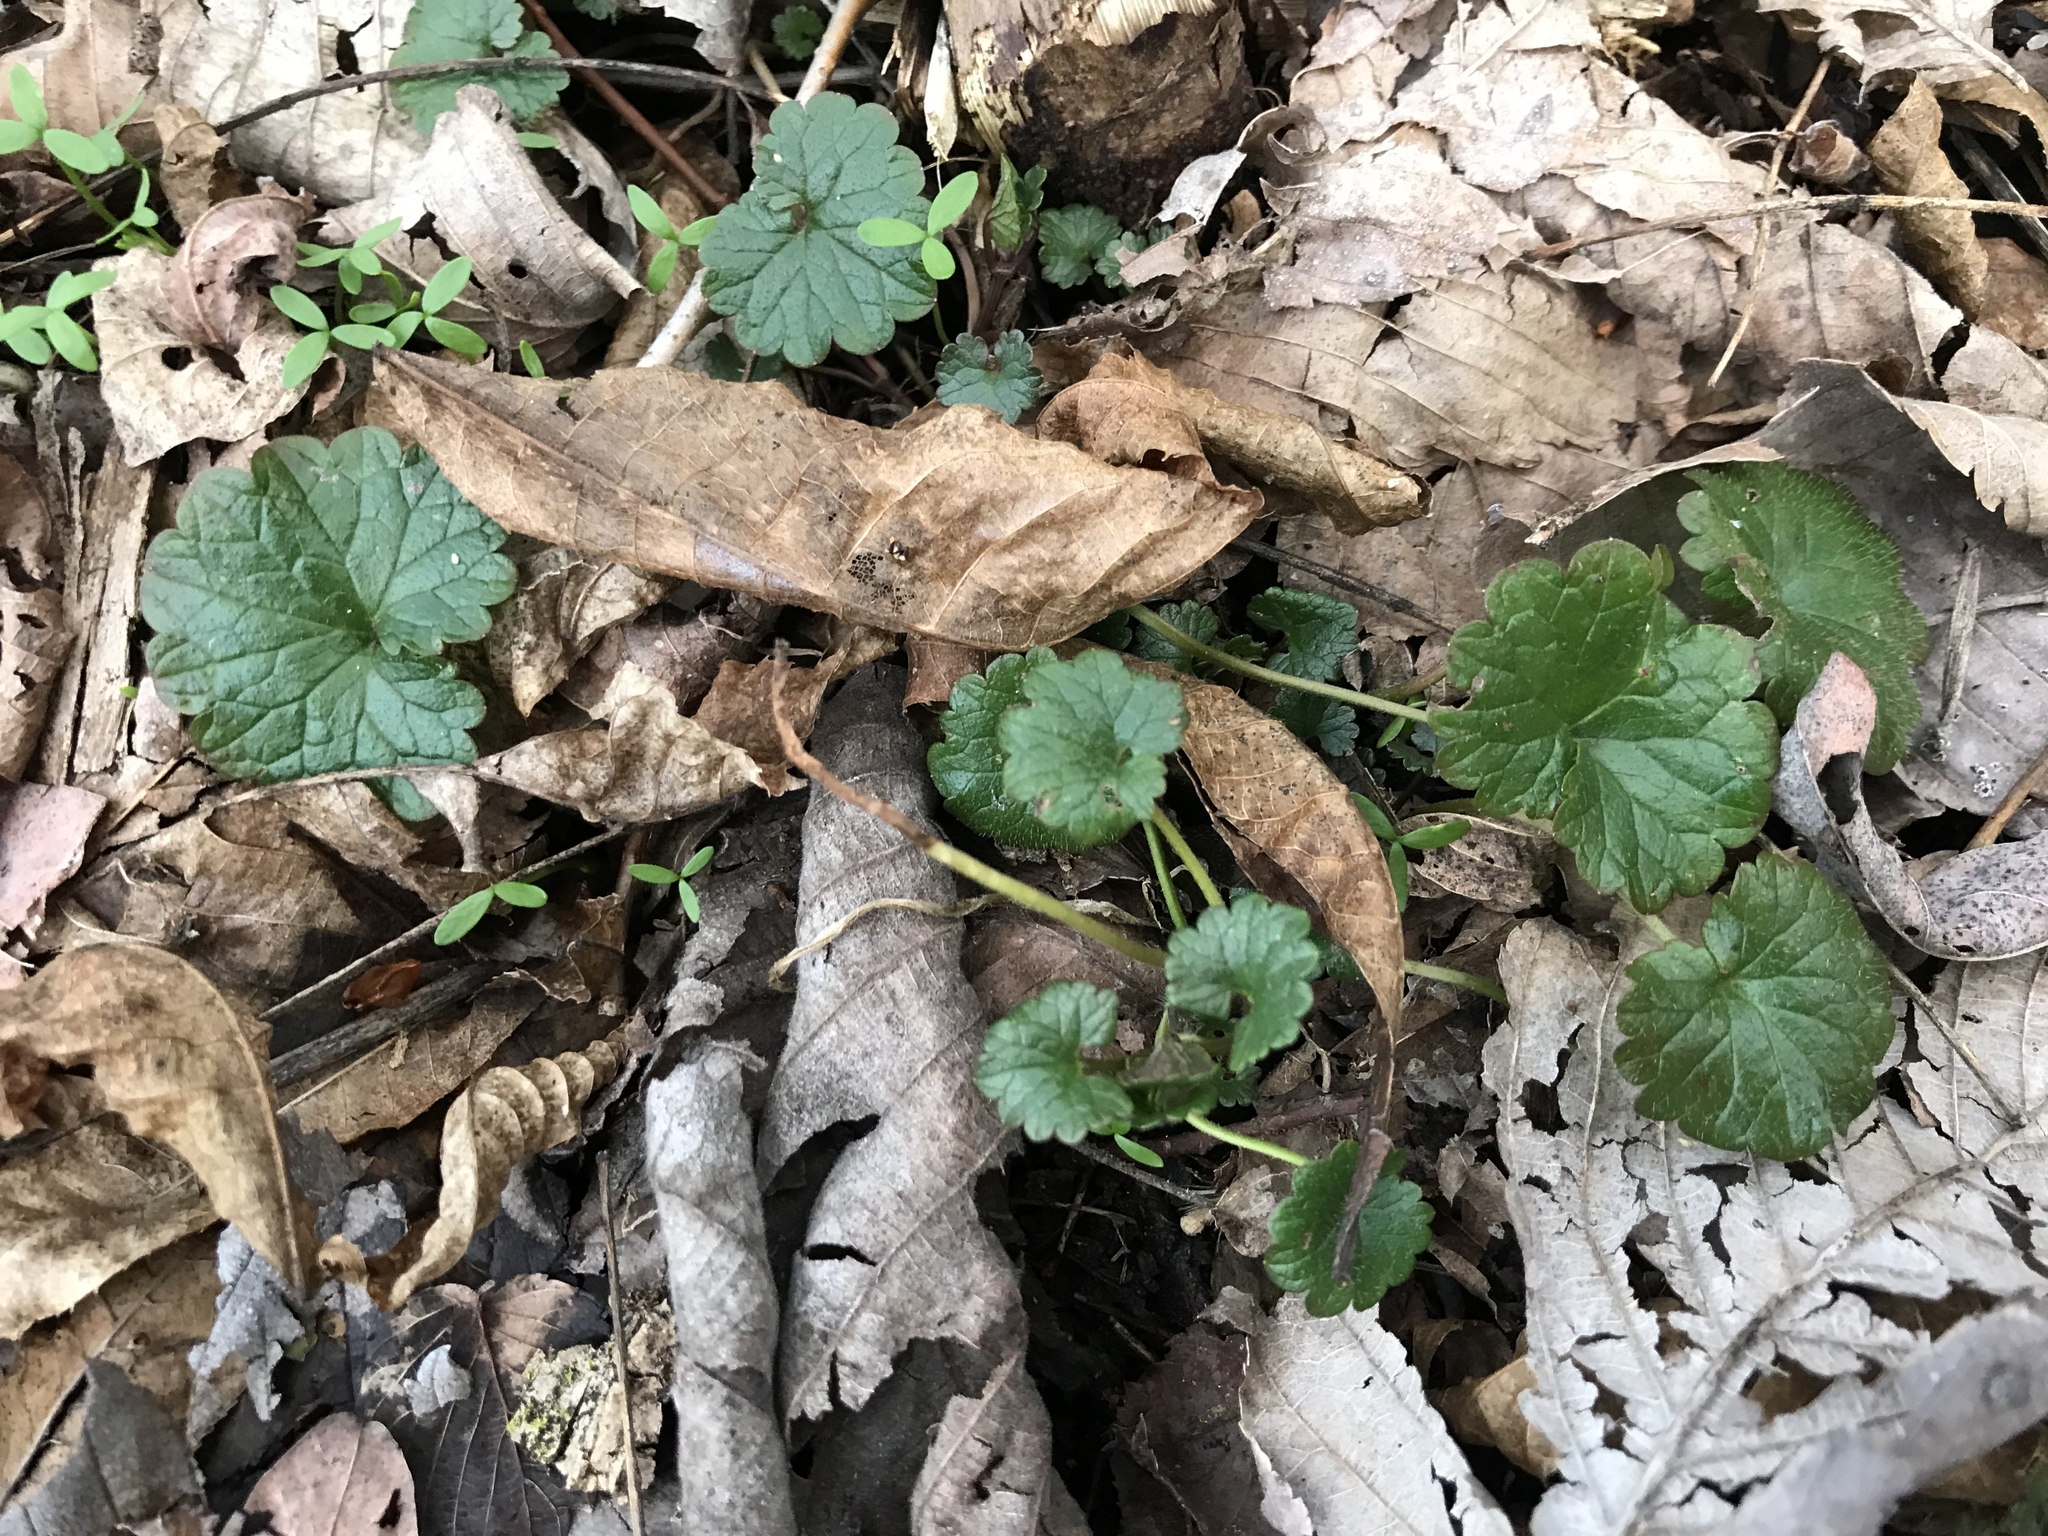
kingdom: Plantae
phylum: Tracheophyta
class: Magnoliopsida
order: Lamiales
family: Lamiaceae
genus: Glechoma
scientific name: Glechoma hederacea
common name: Ground ivy
